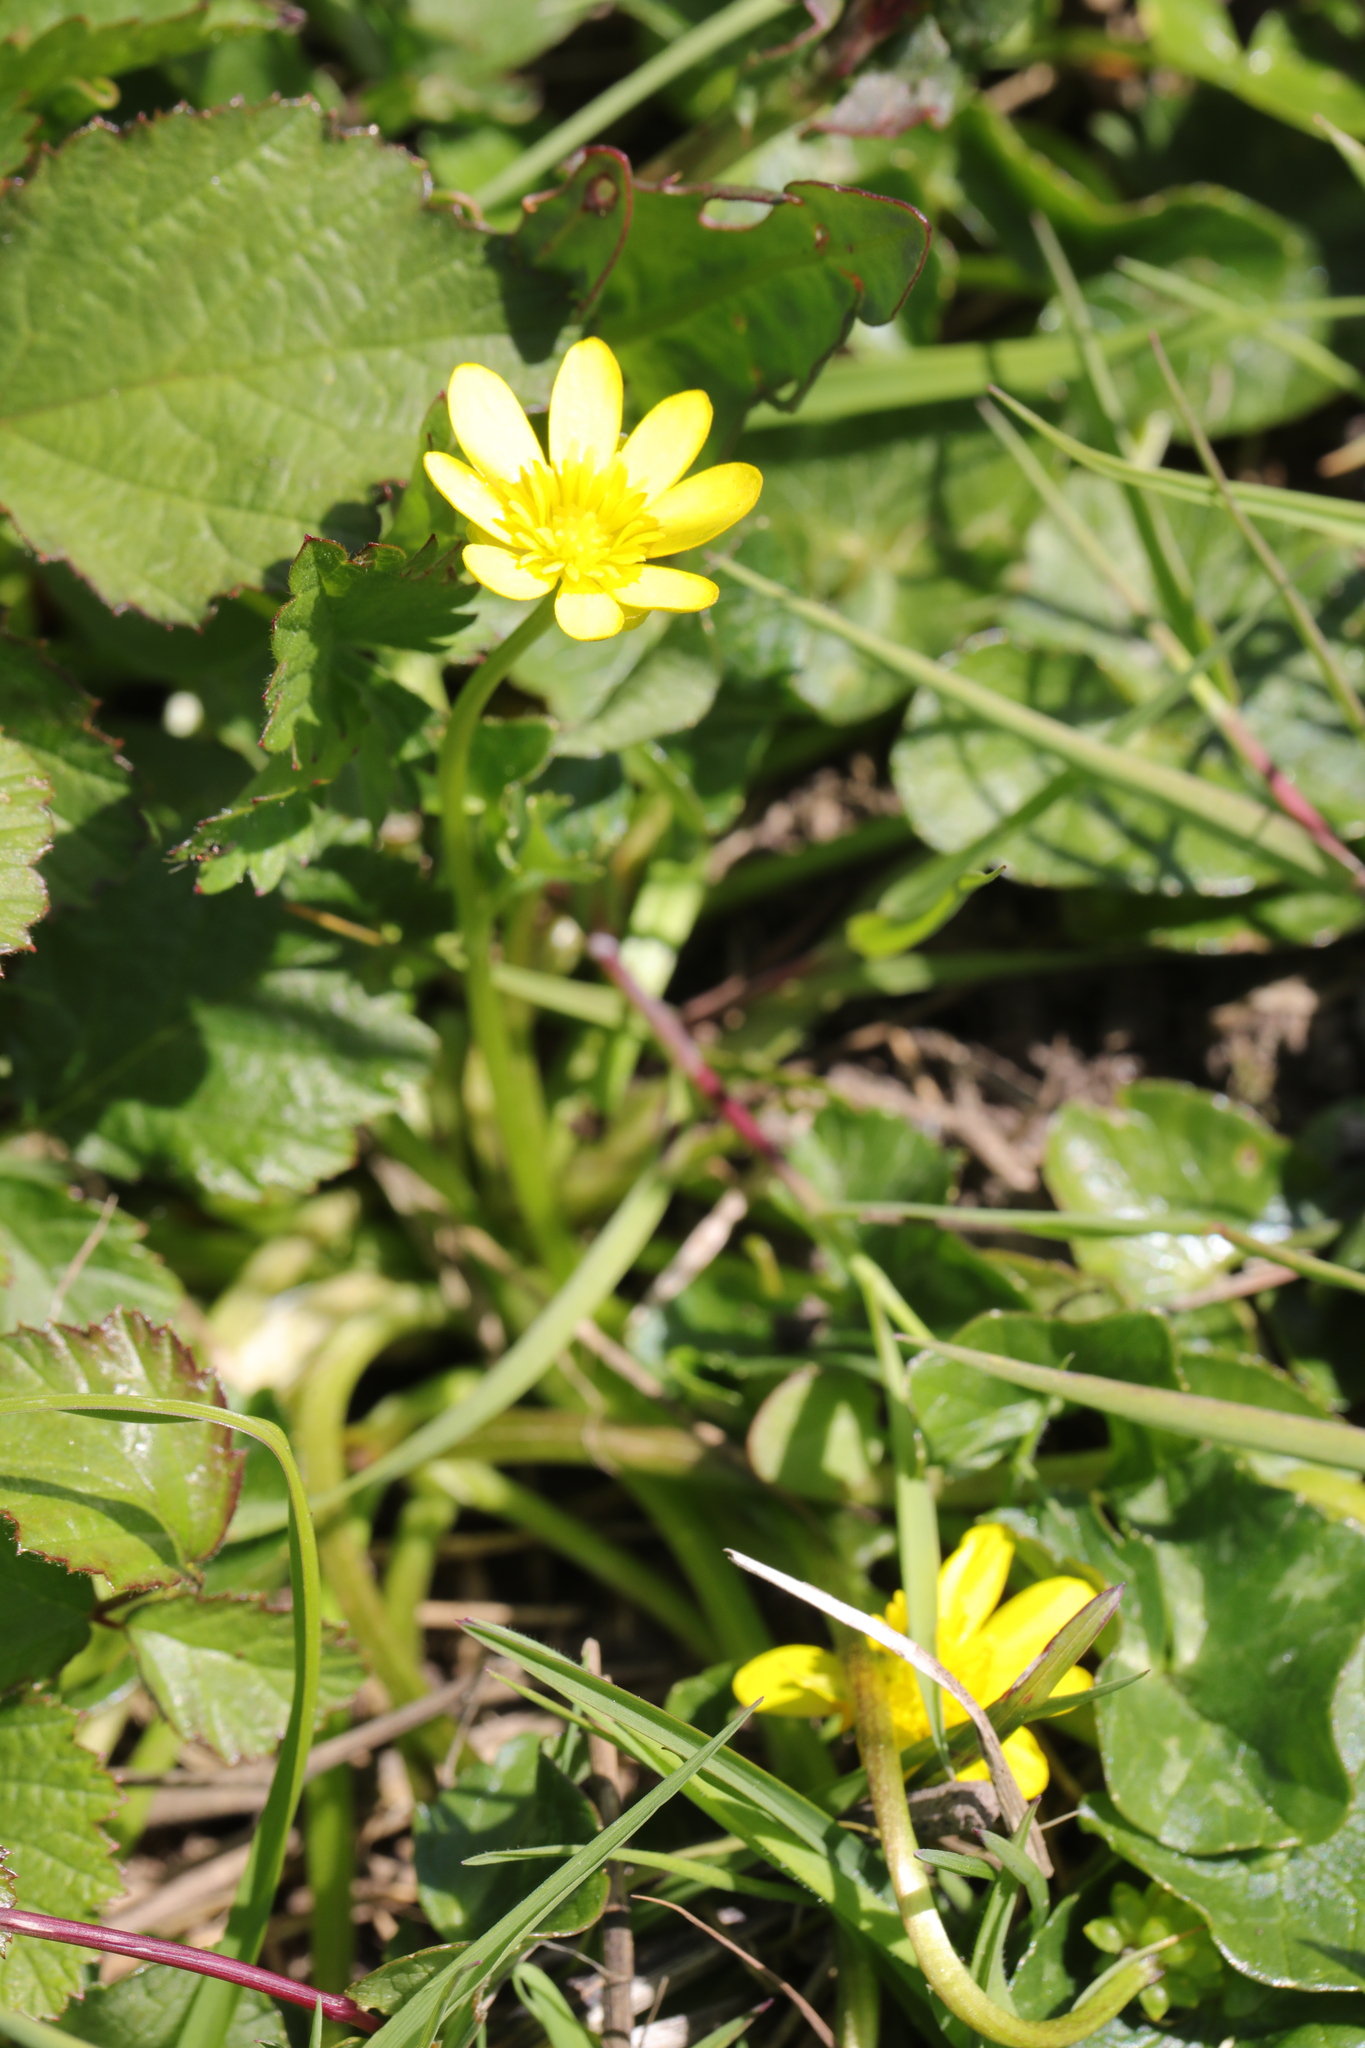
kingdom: Plantae
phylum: Tracheophyta
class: Magnoliopsida
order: Ranunculales
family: Ranunculaceae
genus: Ficaria
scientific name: Ficaria verna
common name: Lesser celandine
